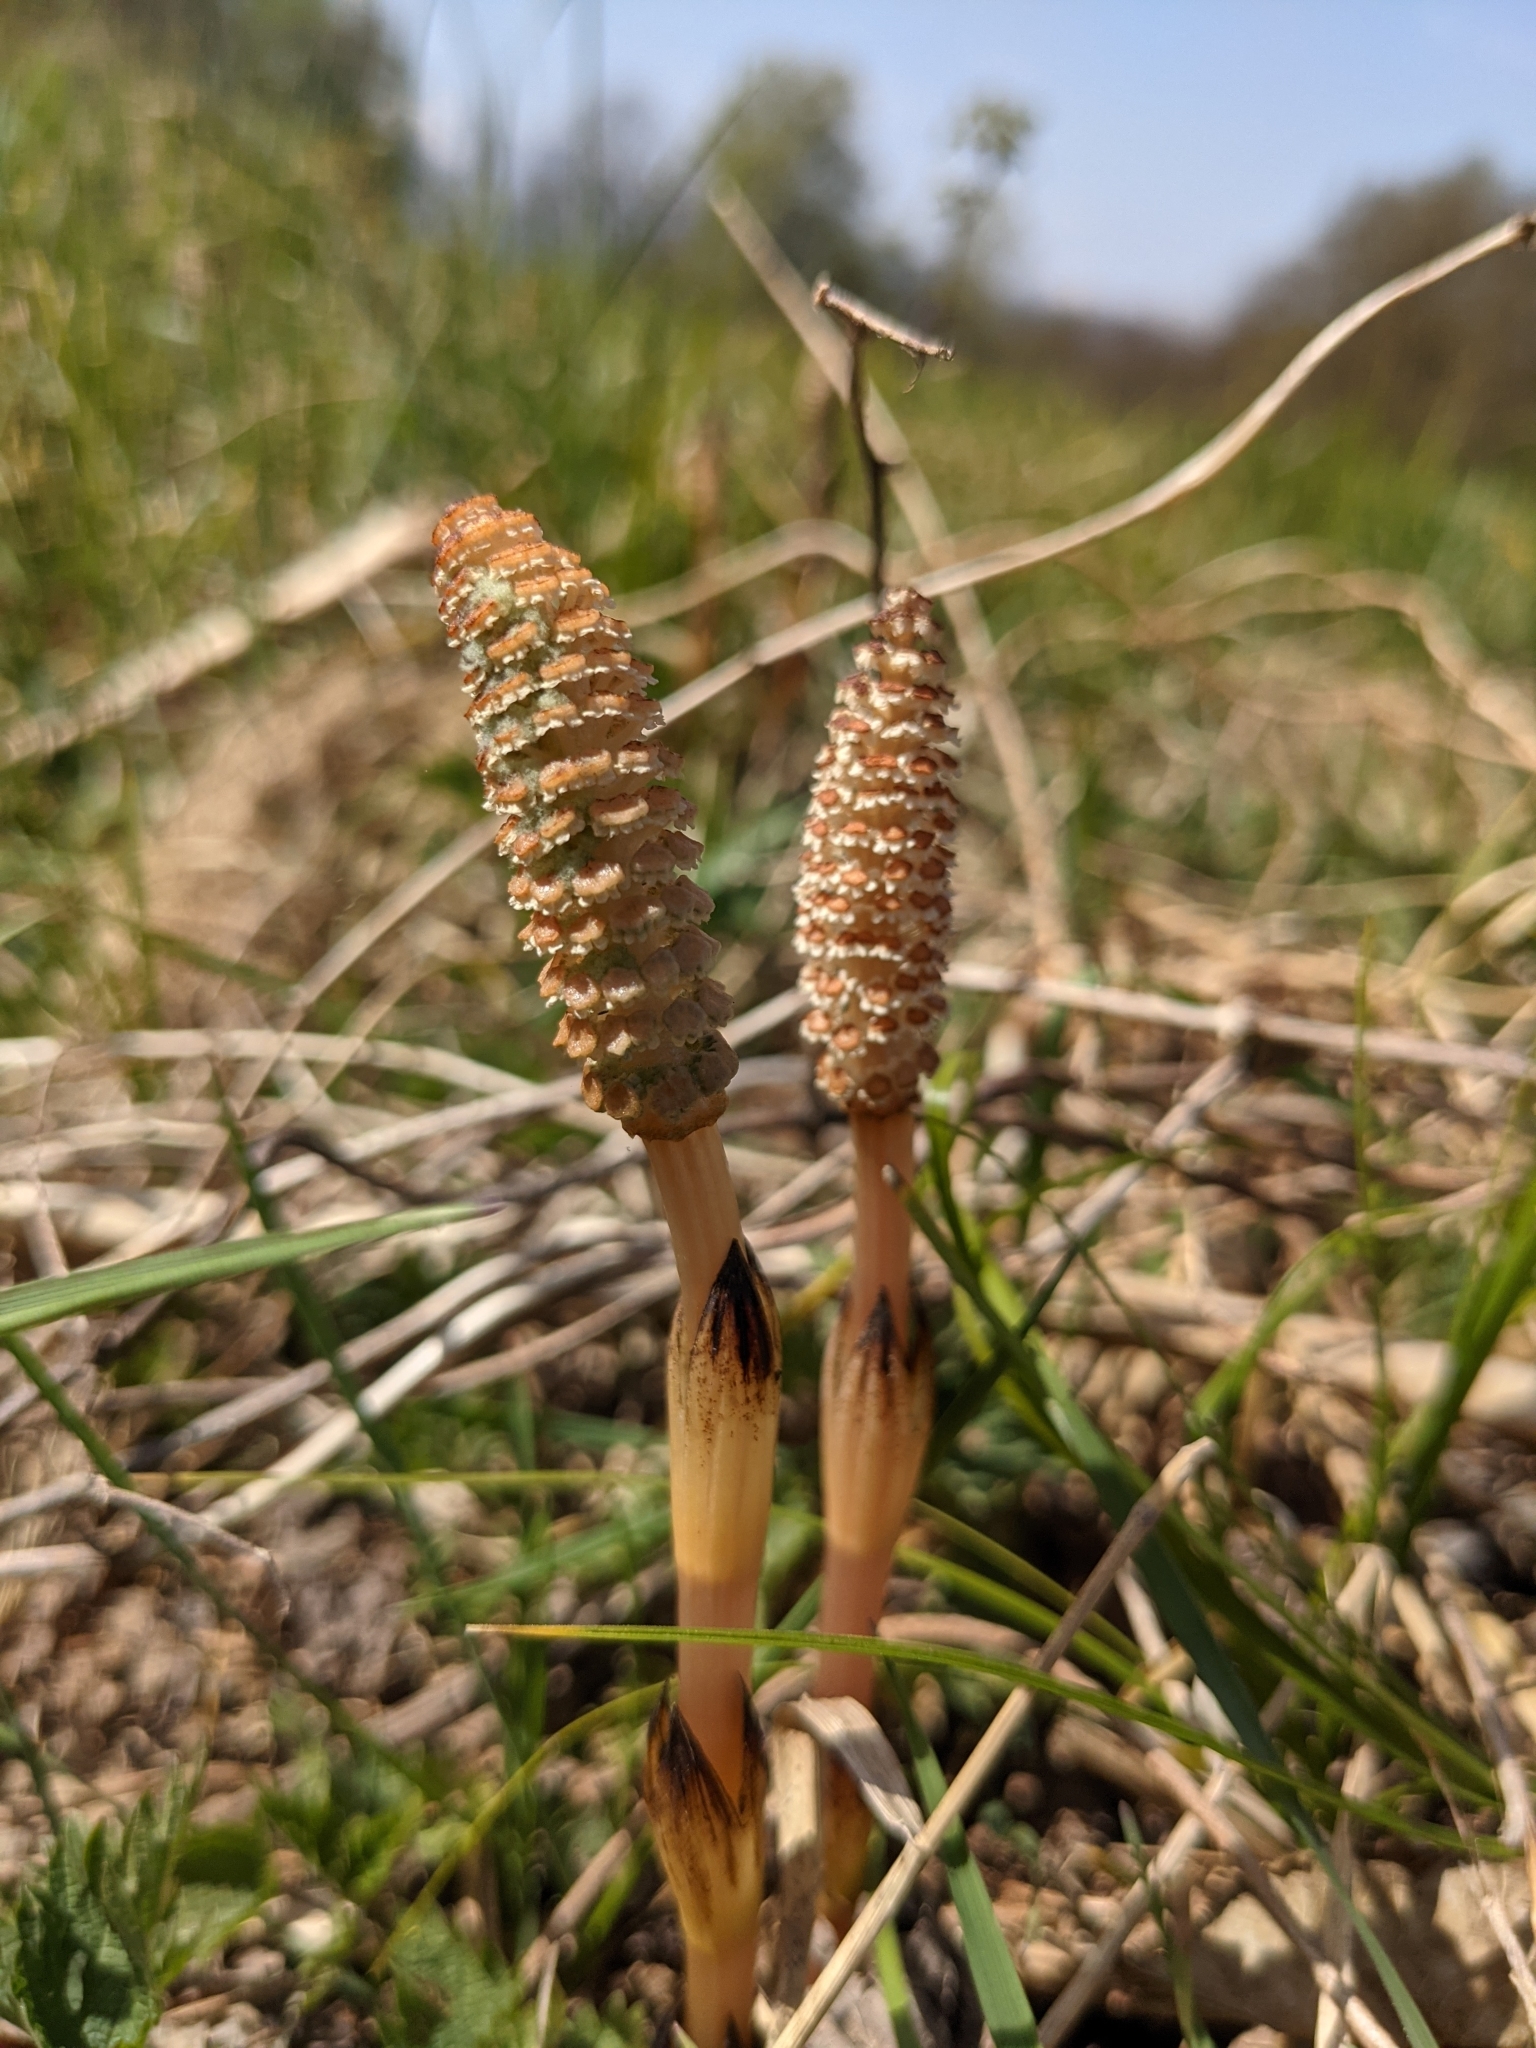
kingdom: Plantae
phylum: Tracheophyta
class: Polypodiopsida
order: Equisetales
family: Equisetaceae
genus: Equisetum
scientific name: Equisetum arvense
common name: Field horsetail
